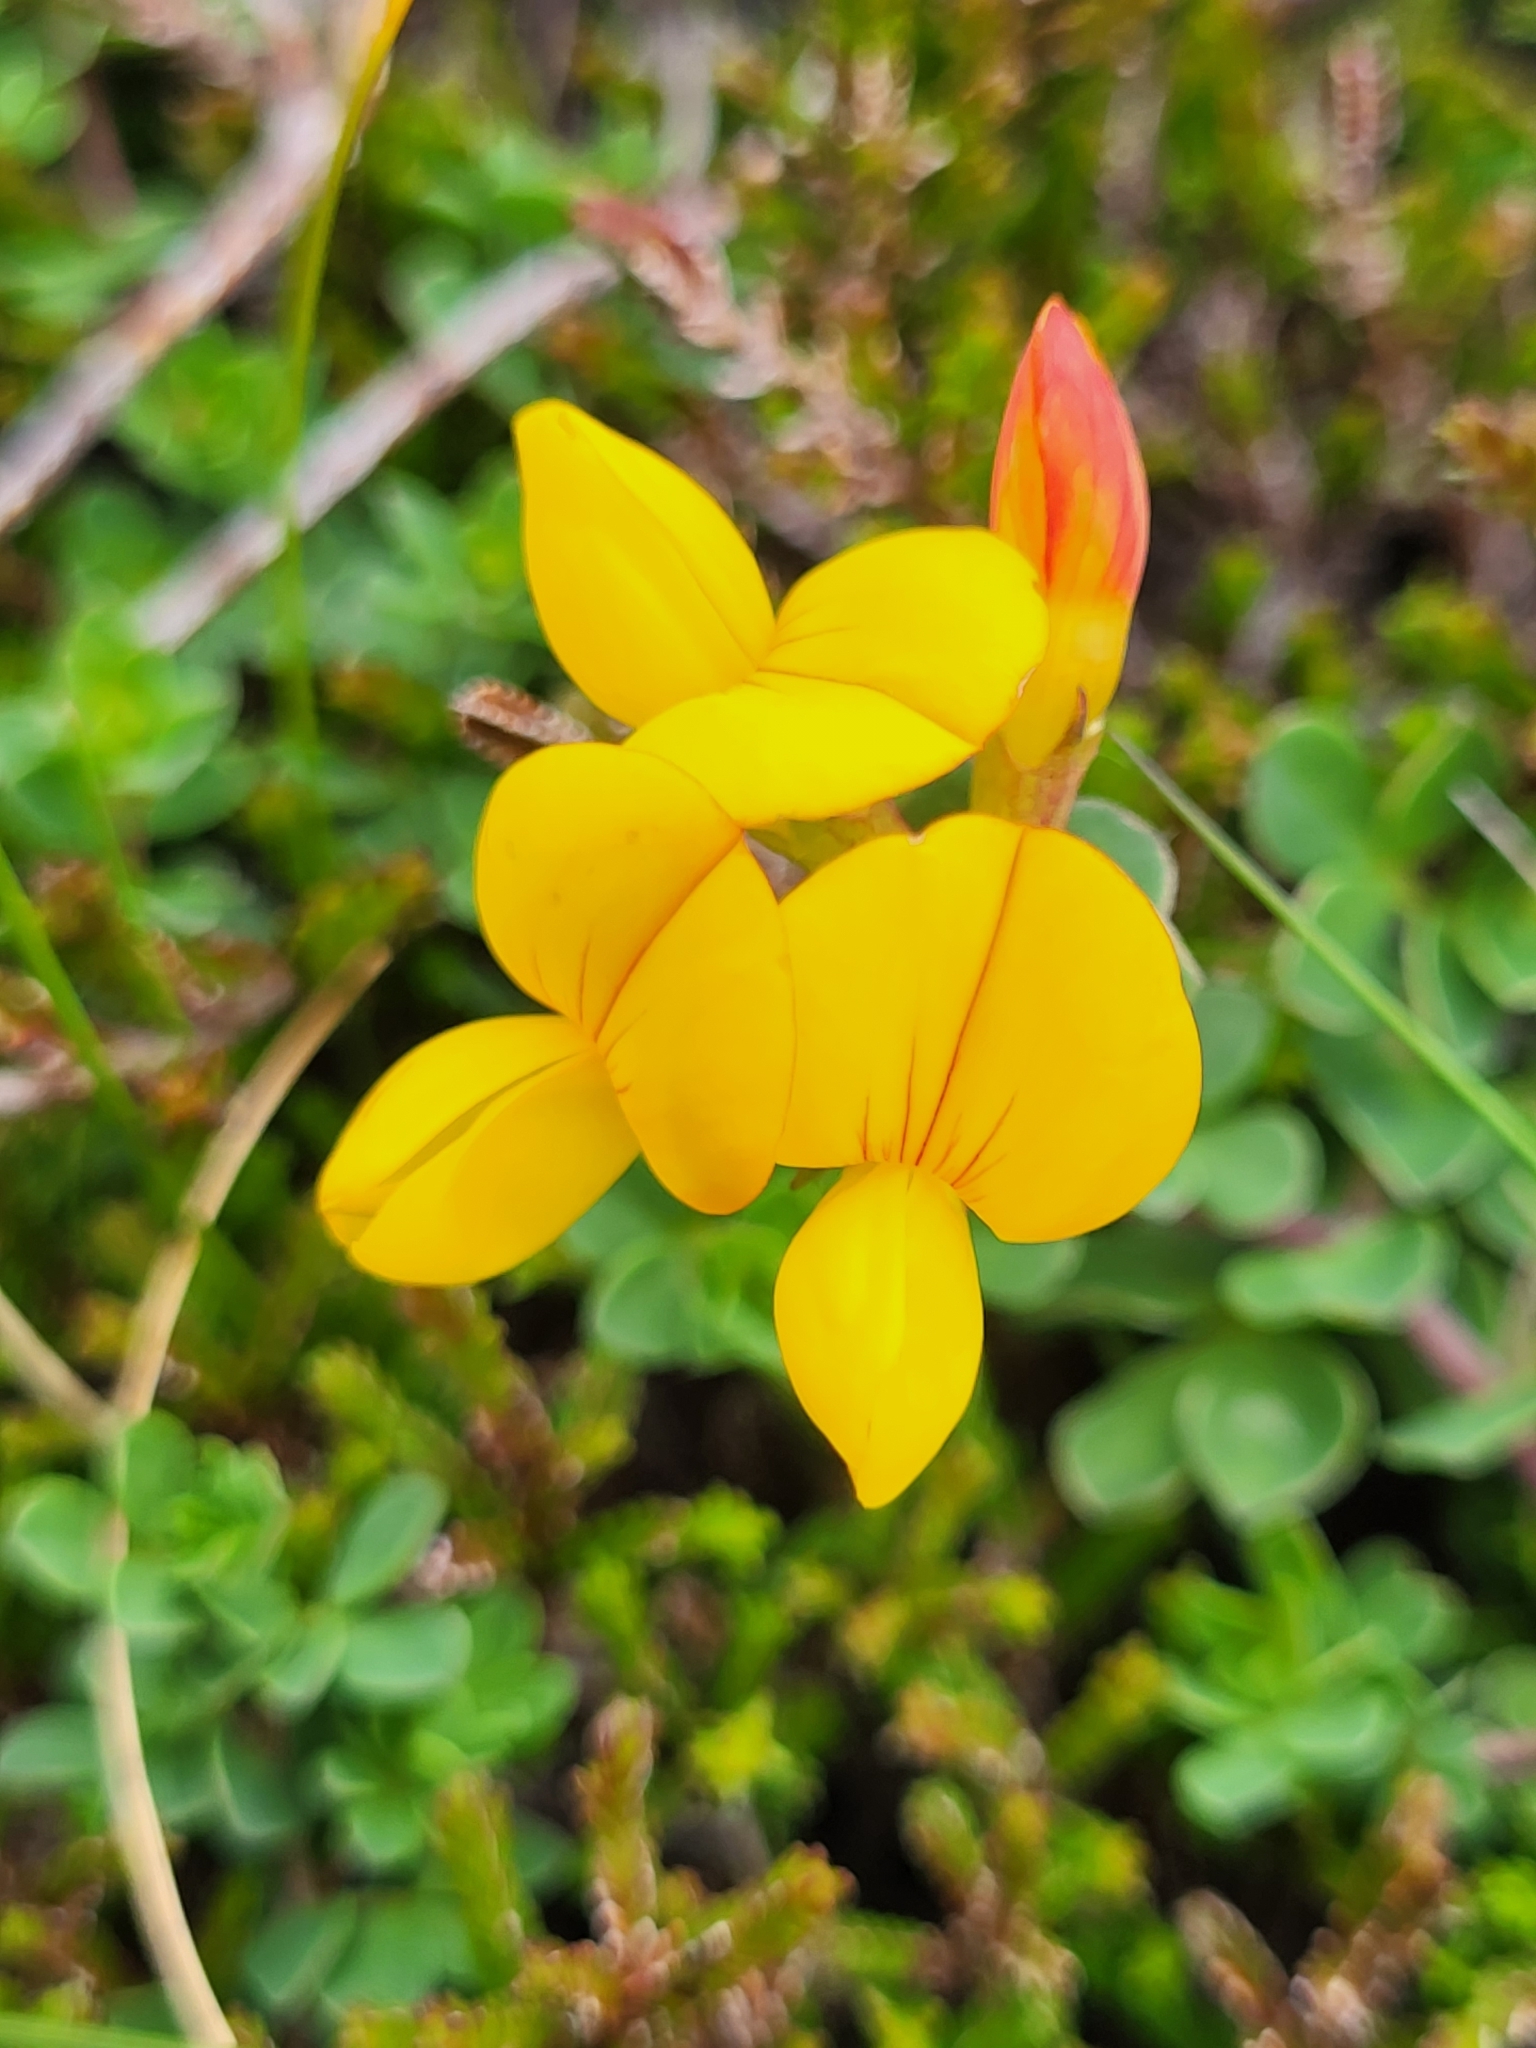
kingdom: Plantae
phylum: Tracheophyta
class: Magnoliopsida
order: Fabales
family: Fabaceae
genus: Lotus
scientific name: Lotus corniculatus
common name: Common bird's-foot-trefoil
